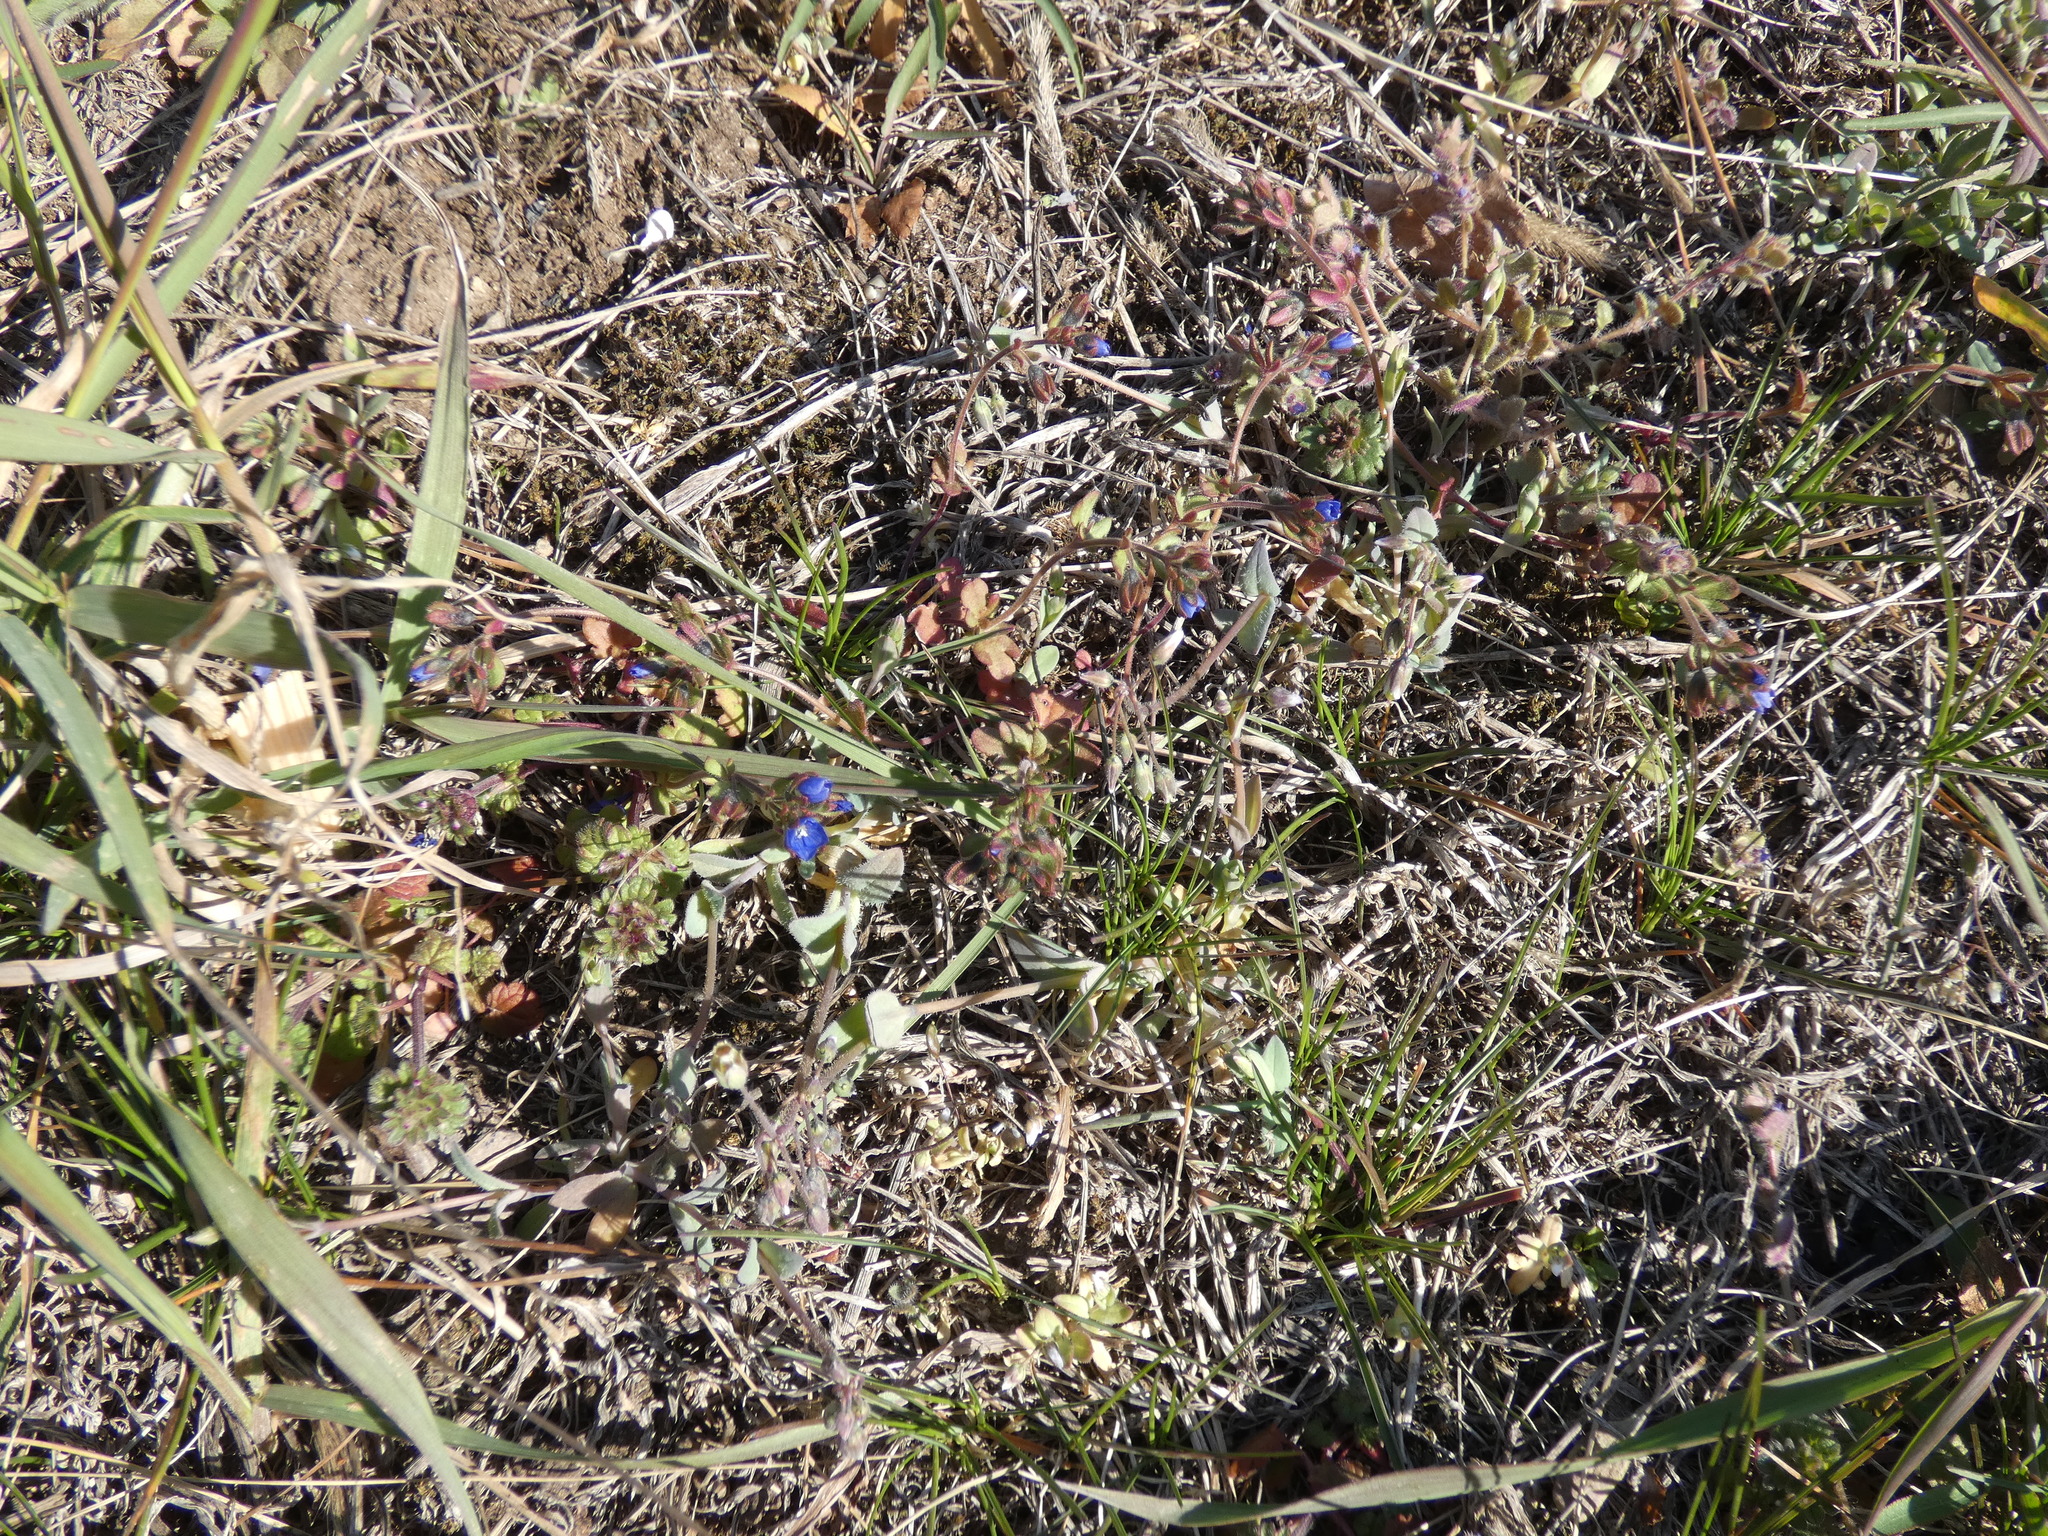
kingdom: Plantae
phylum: Tracheophyta
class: Magnoliopsida
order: Caryophyllales
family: Caryophyllaceae
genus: Holosteum
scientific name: Holosteum umbellatum
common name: Jagged chickweed
